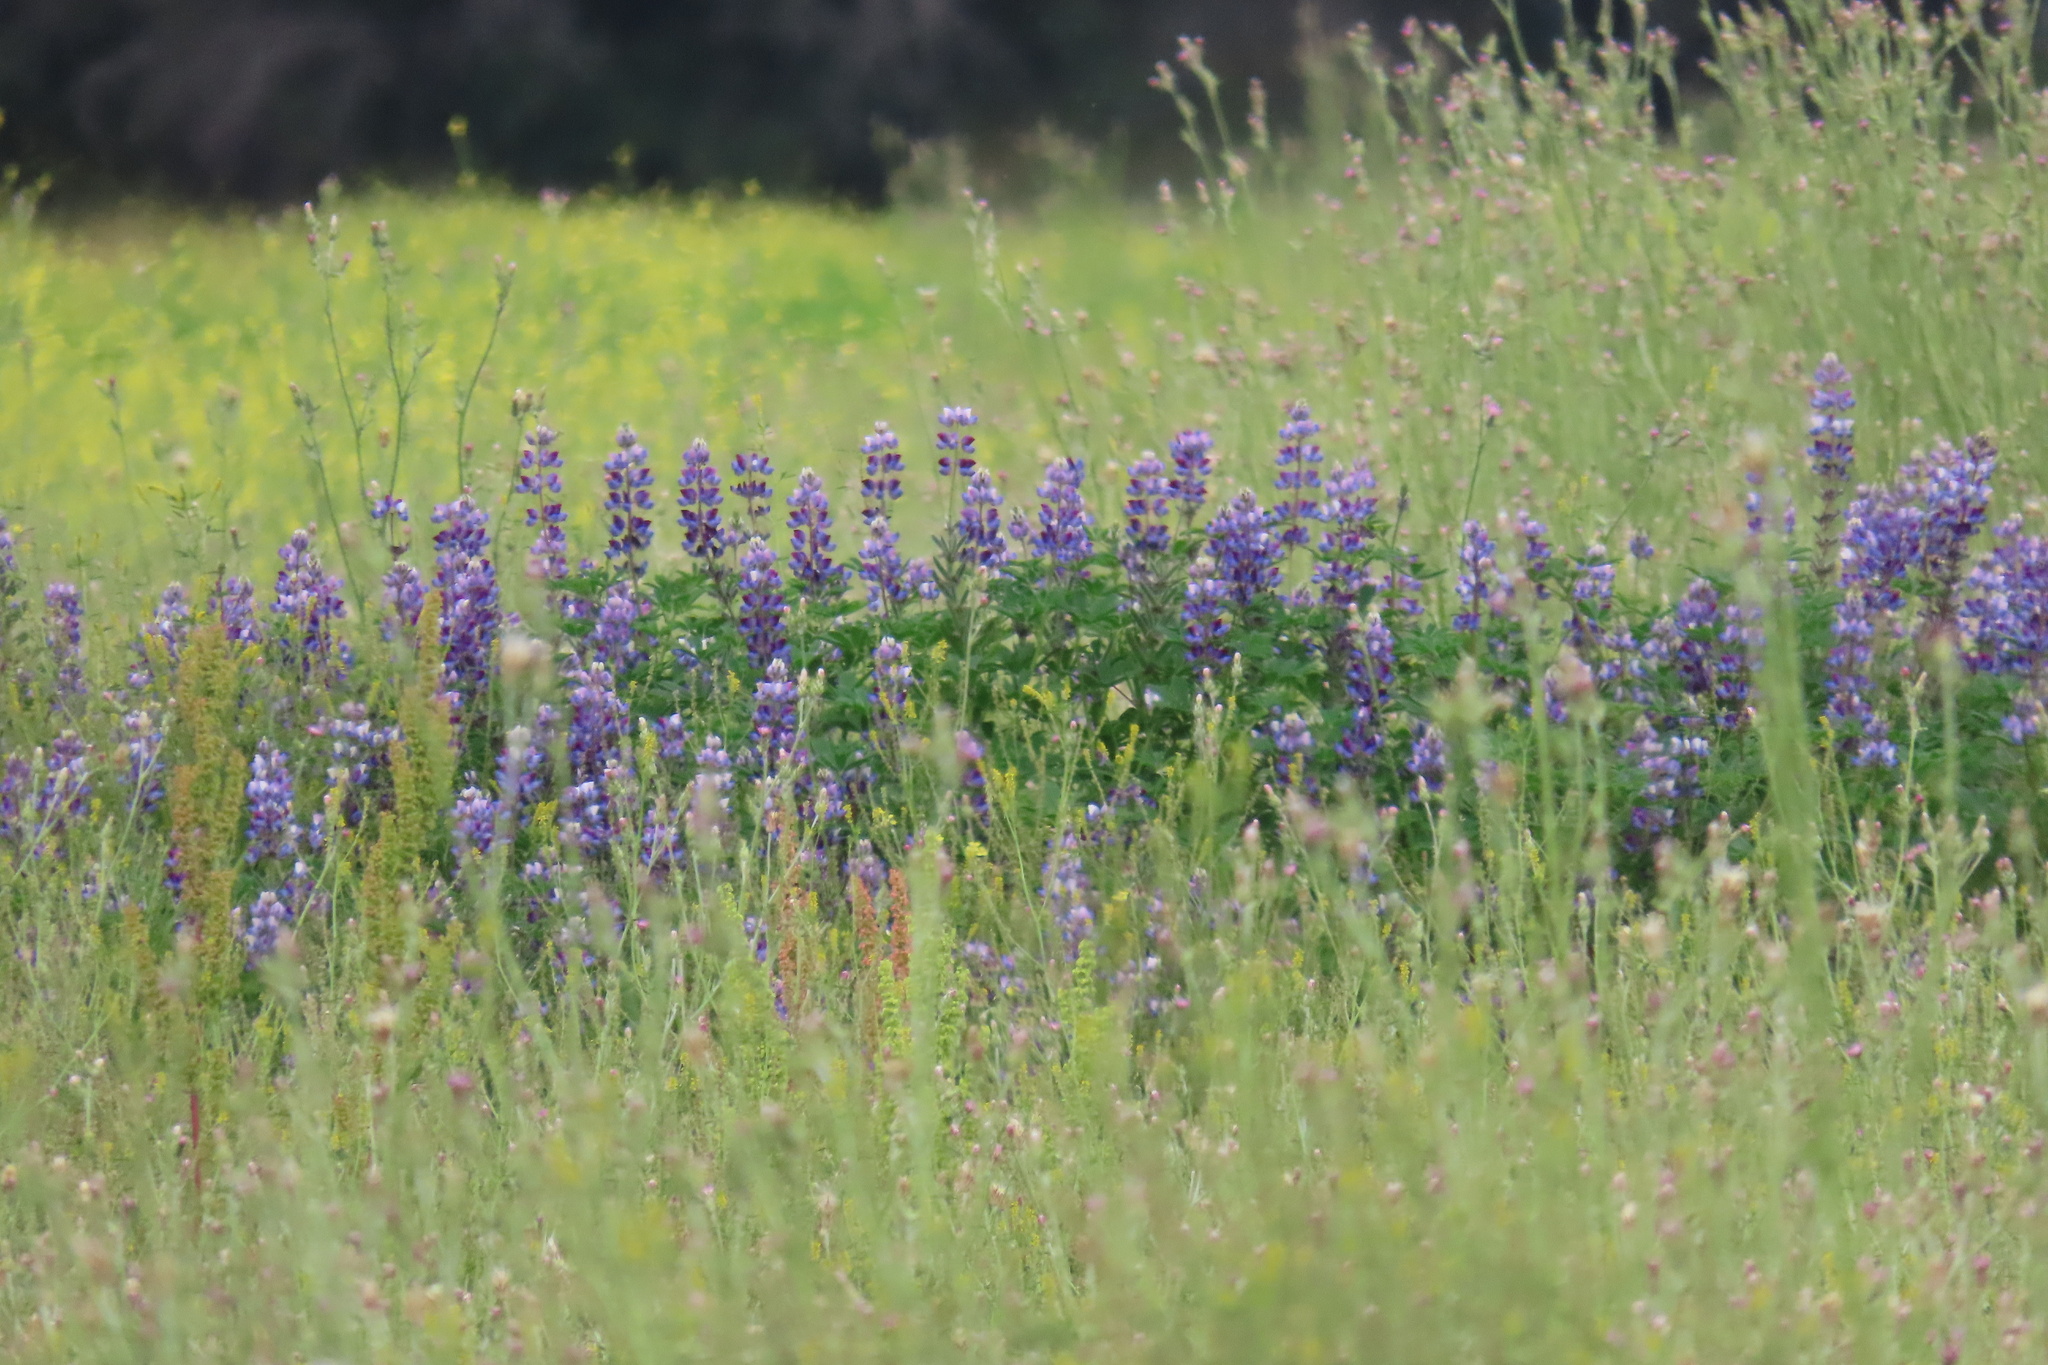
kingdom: Plantae
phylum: Tracheophyta
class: Magnoliopsida
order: Fabales
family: Fabaceae
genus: Lupinus
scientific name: Lupinus succulentus
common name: Arroyo lupine
